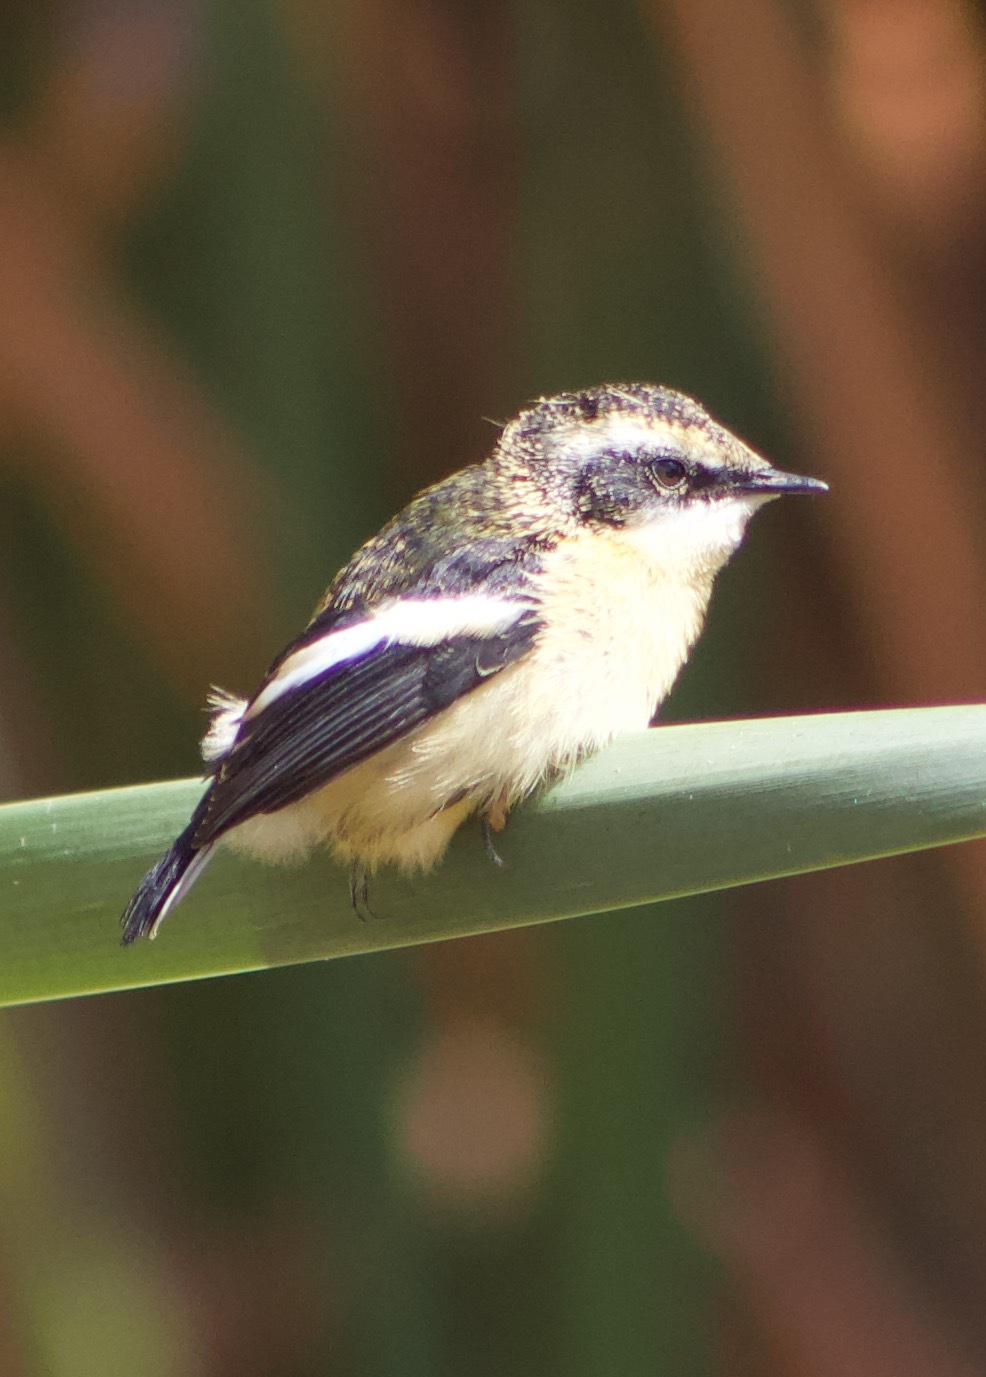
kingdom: Animalia
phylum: Chordata
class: Aves
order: Passeriformes
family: Tyrannidae
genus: Tachuris
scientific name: Tachuris rubrigastra
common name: Many-colored rush tyrant
